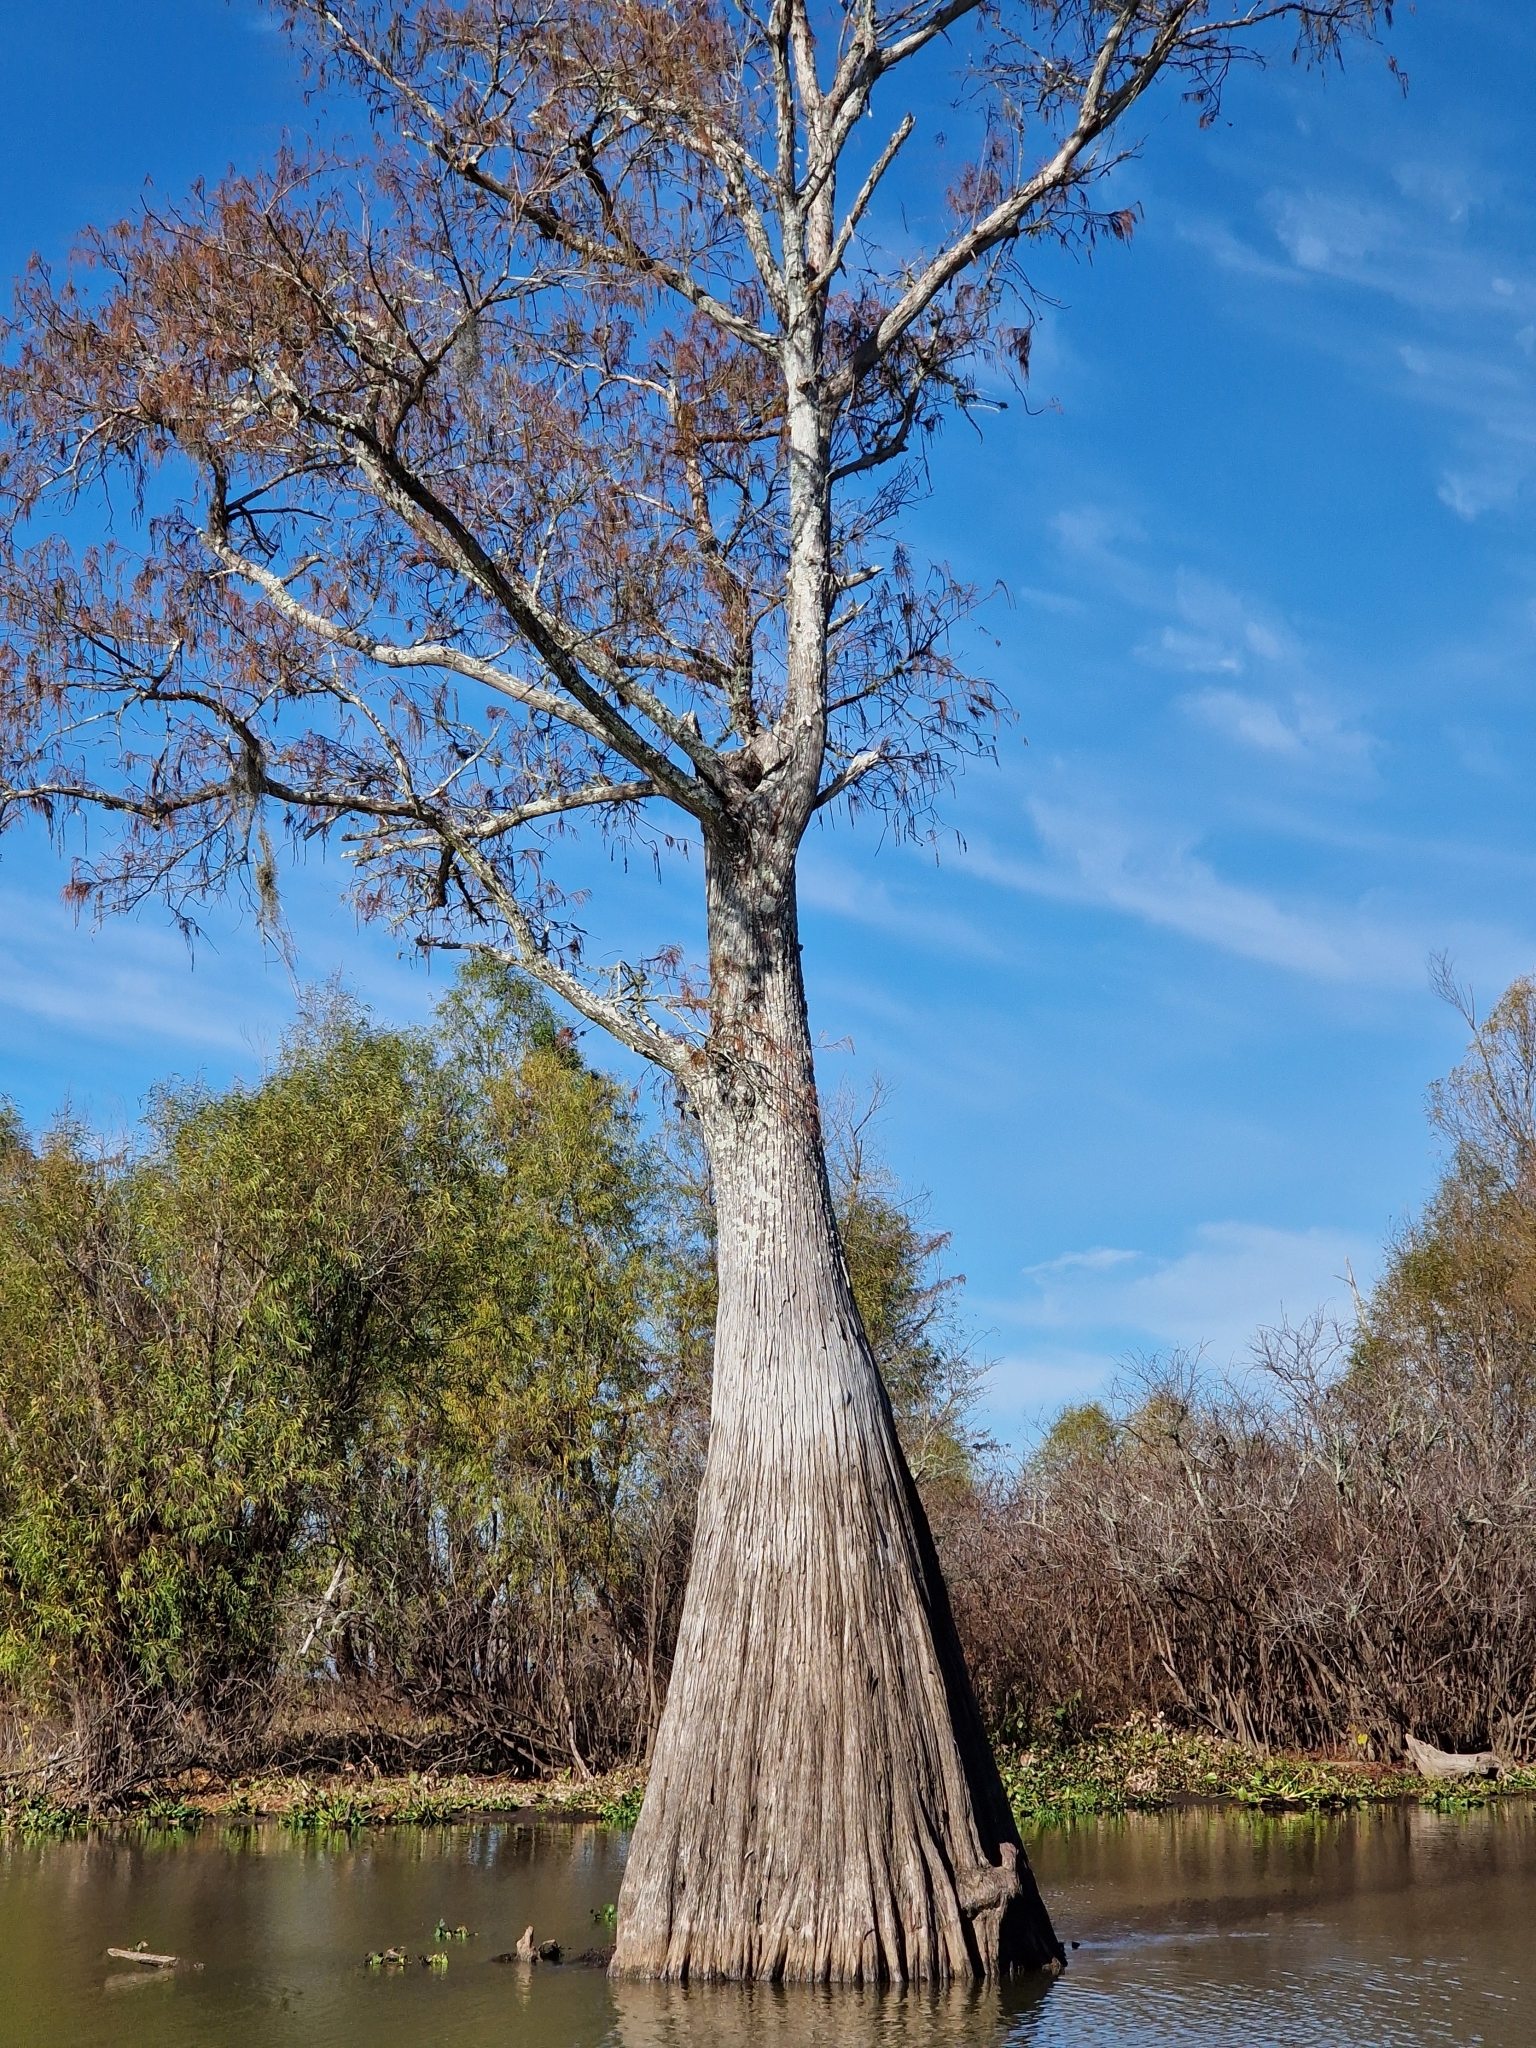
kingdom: Plantae
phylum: Tracheophyta
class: Pinopsida
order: Pinales
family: Cupressaceae
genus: Taxodium
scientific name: Taxodium distichum
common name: Bald cypress
